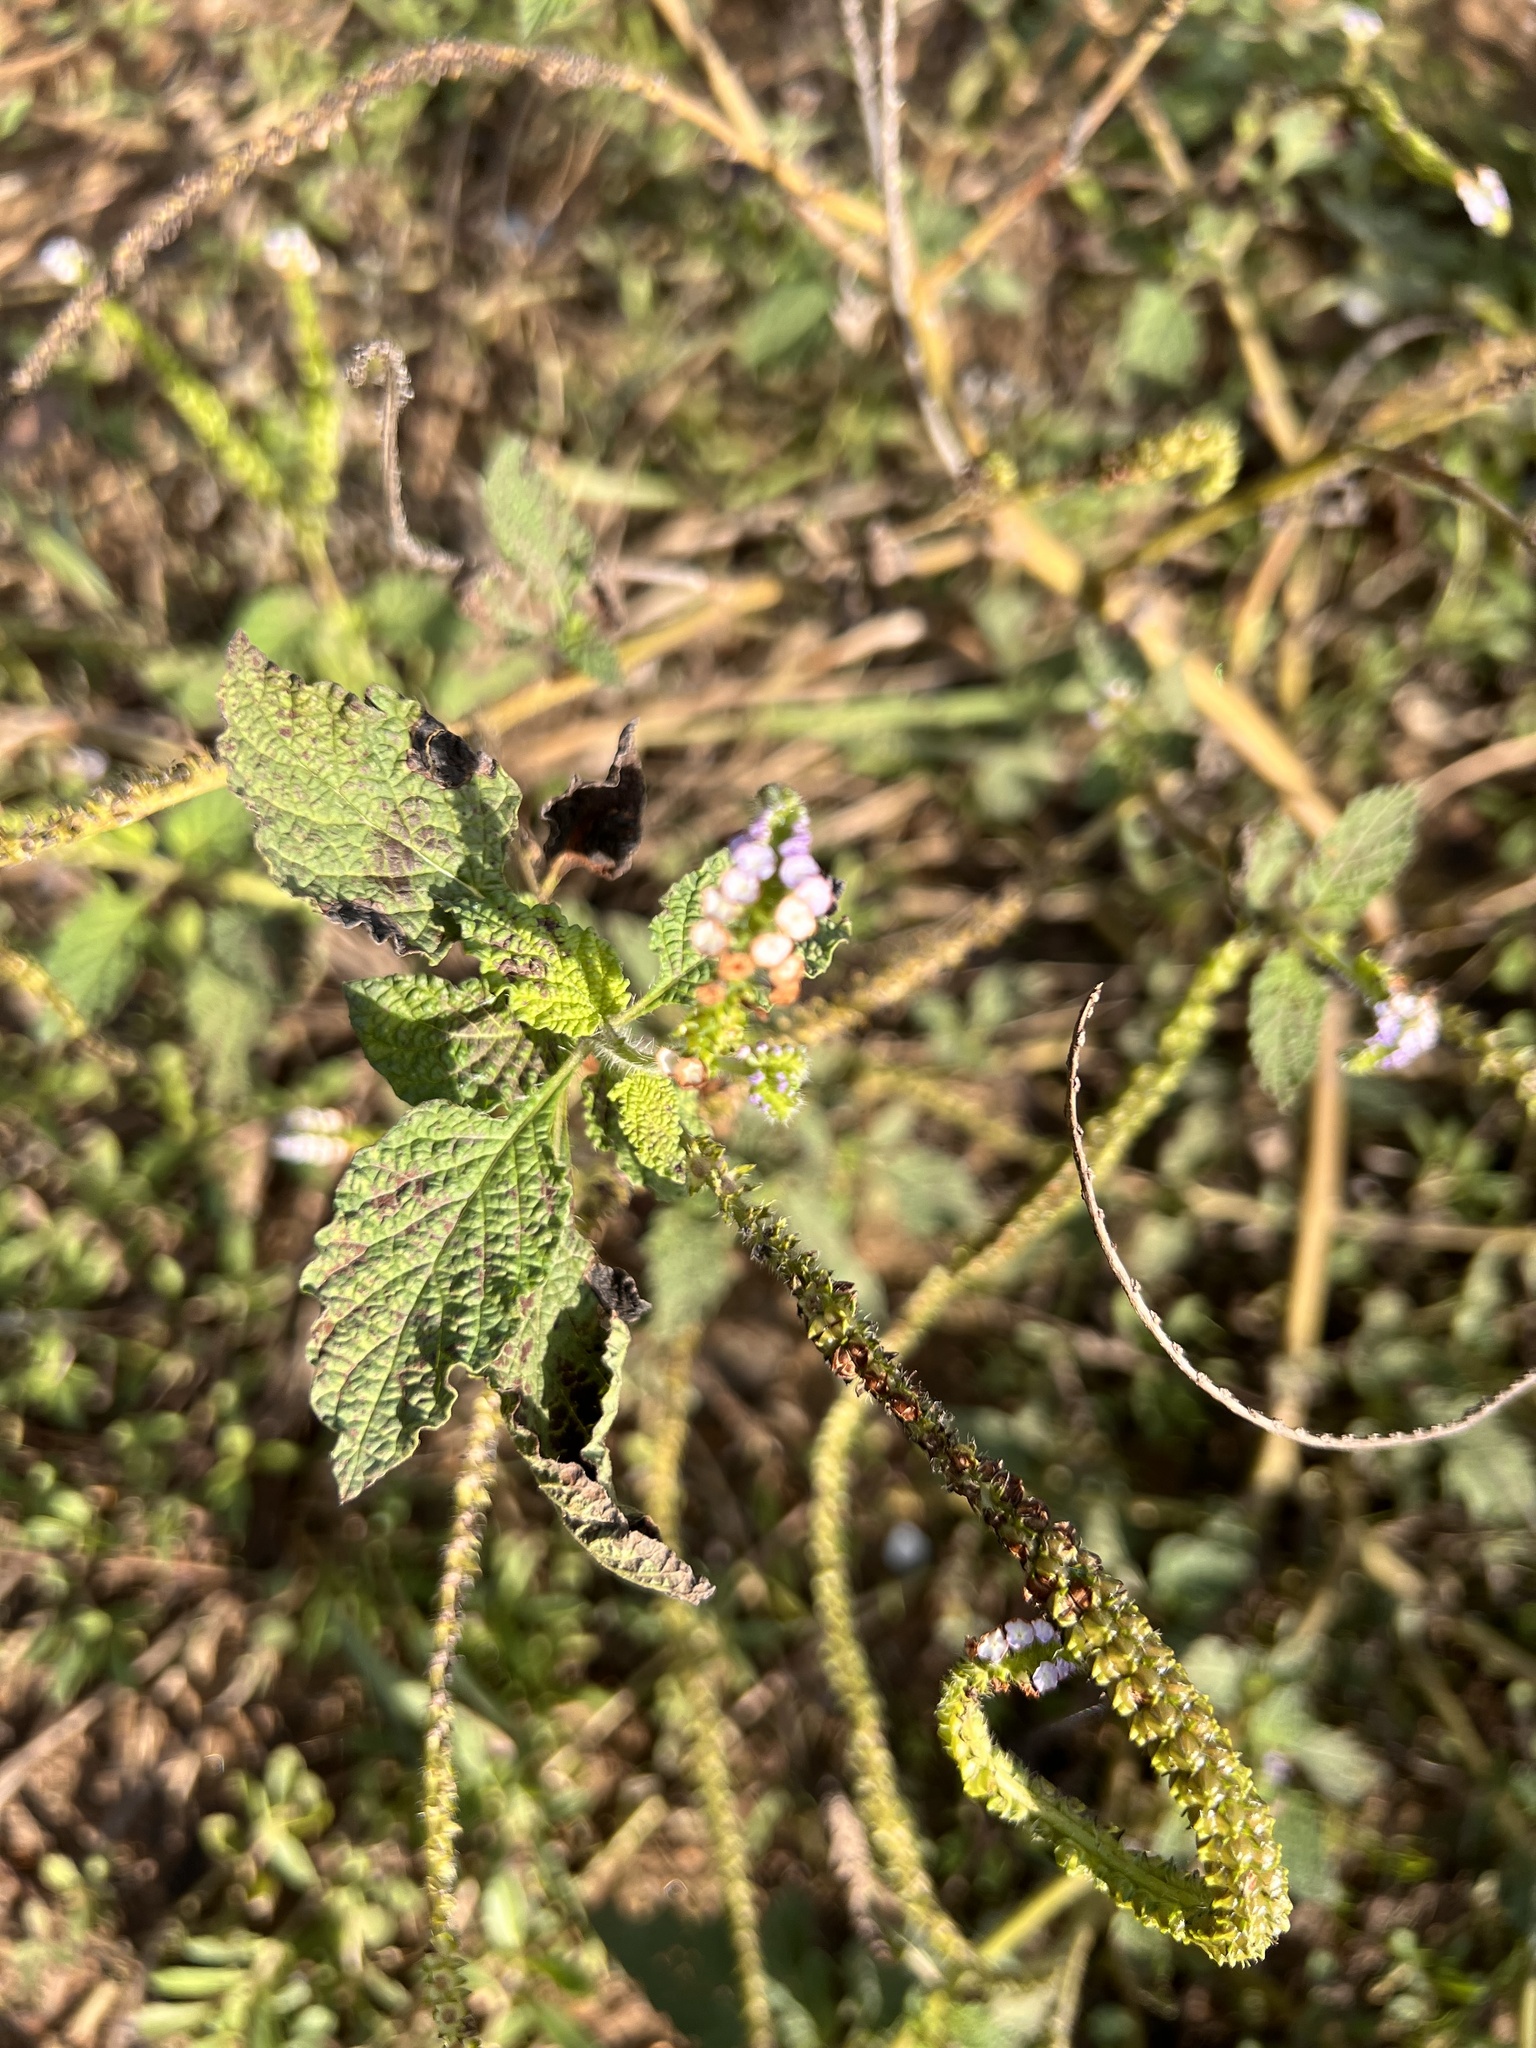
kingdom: Plantae
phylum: Tracheophyta
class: Magnoliopsida
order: Boraginales
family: Heliotropiaceae
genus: Heliotropium
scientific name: Heliotropium indicum
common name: Indian heliotrope
